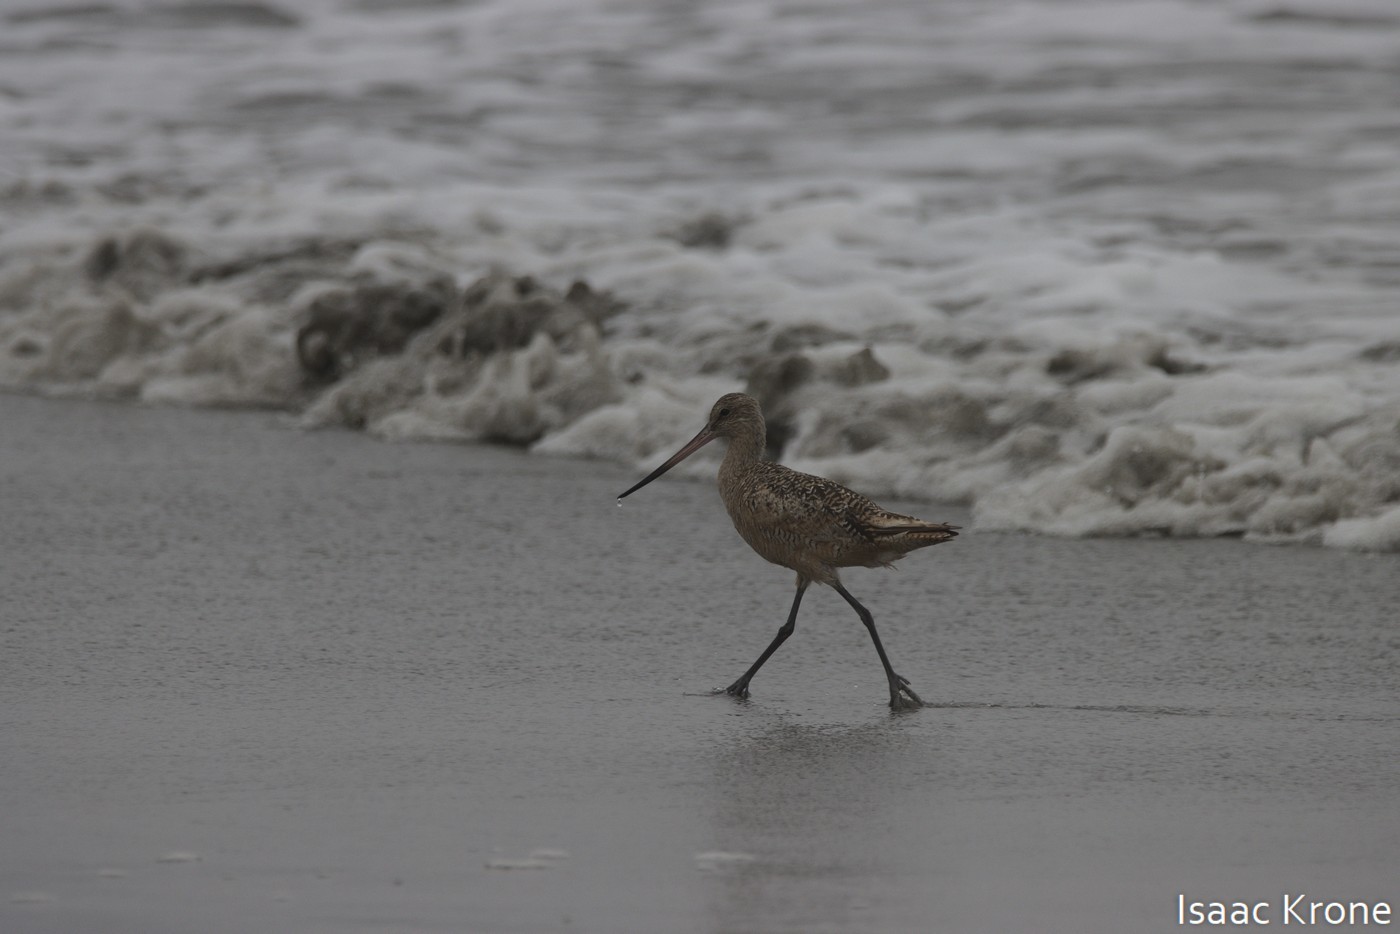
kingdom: Animalia
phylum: Chordata
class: Aves
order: Charadriiformes
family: Scolopacidae
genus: Limosa
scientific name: Limosa fedoa
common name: Marbled godwit
